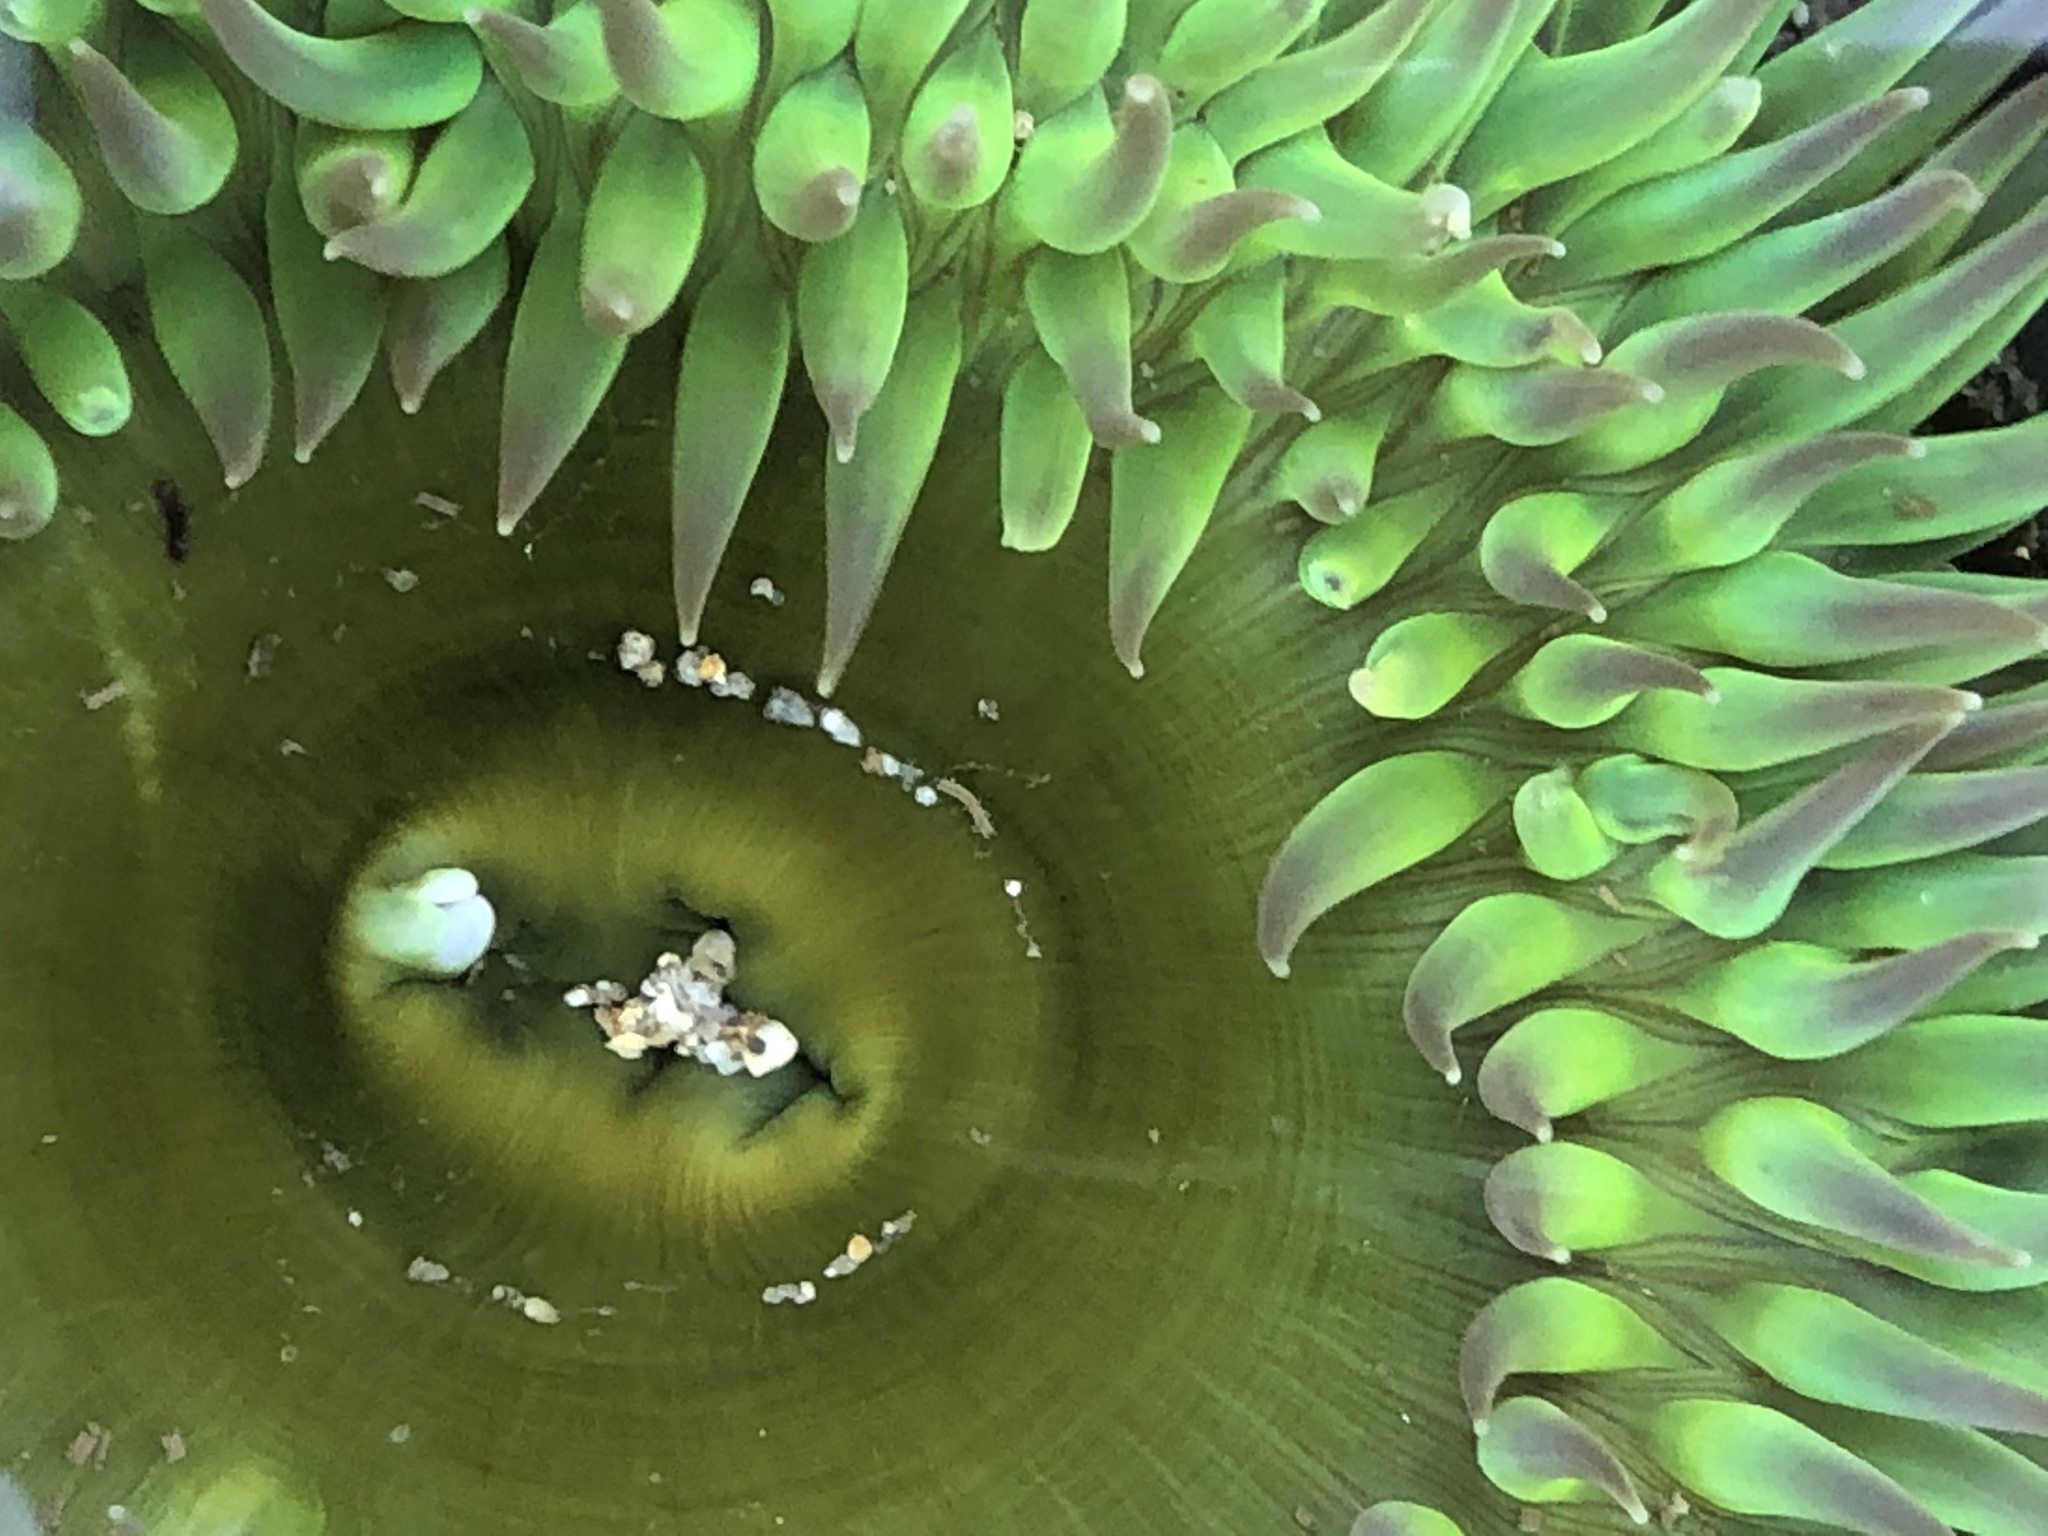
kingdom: Animalia
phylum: Cnidaria
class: Anthozoa
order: Actiniaria
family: Actiniidae
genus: Anthopleura
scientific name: Anthopleura xanthogrammica
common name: Giant green anemone
